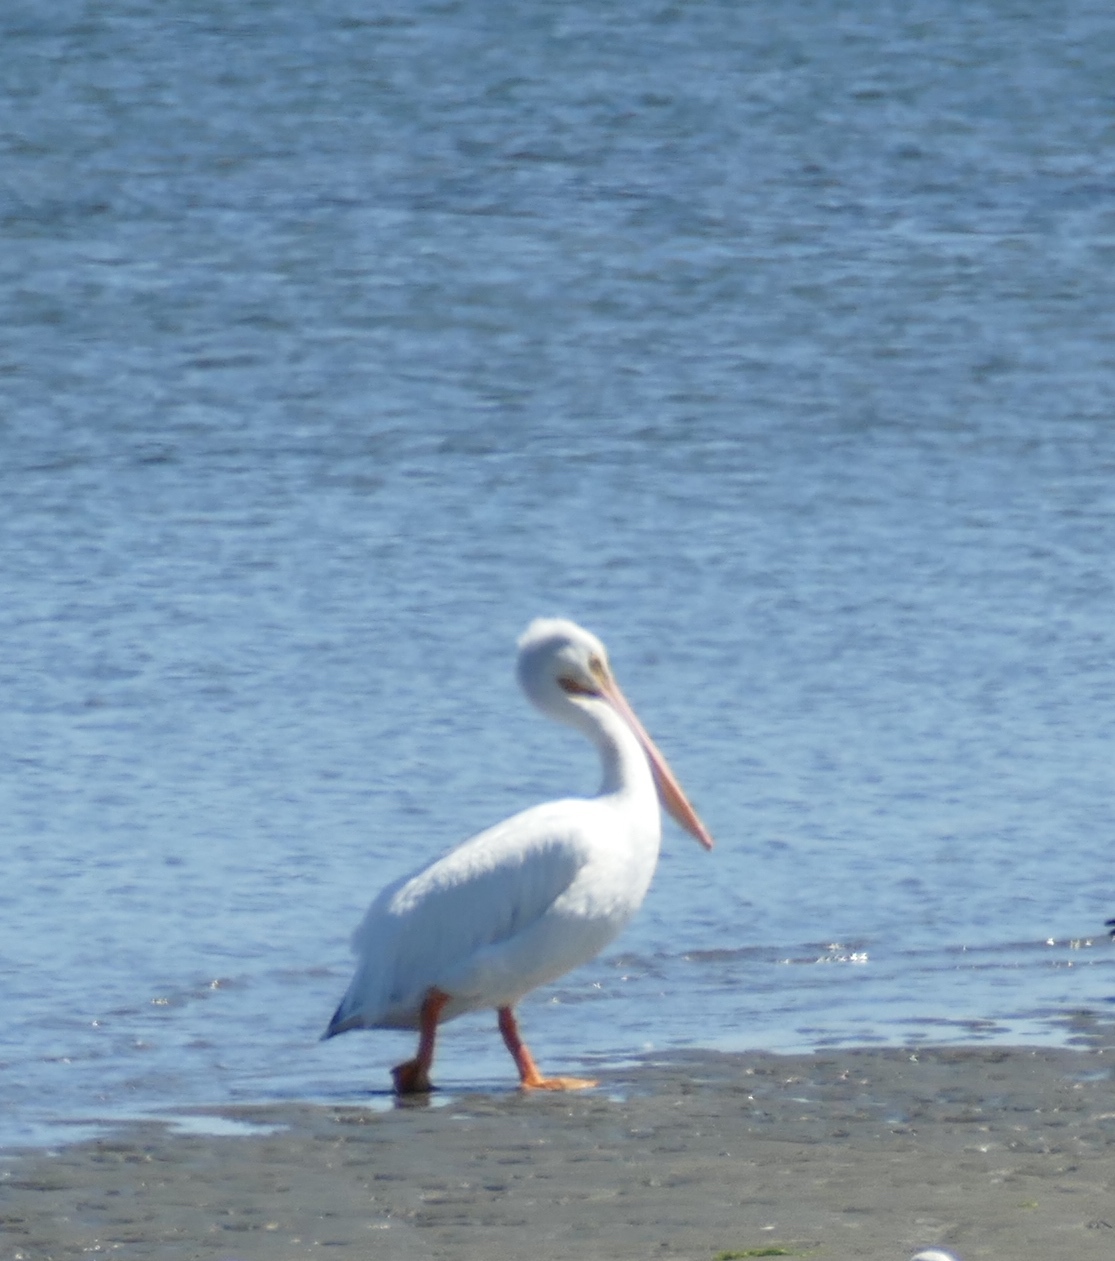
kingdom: Animalia
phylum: Chordata
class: Aves
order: Pelecaniformes
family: Pelecanidae
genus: Pelecanus
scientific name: Pelecanus erythrorhynchos
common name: American white pelican
